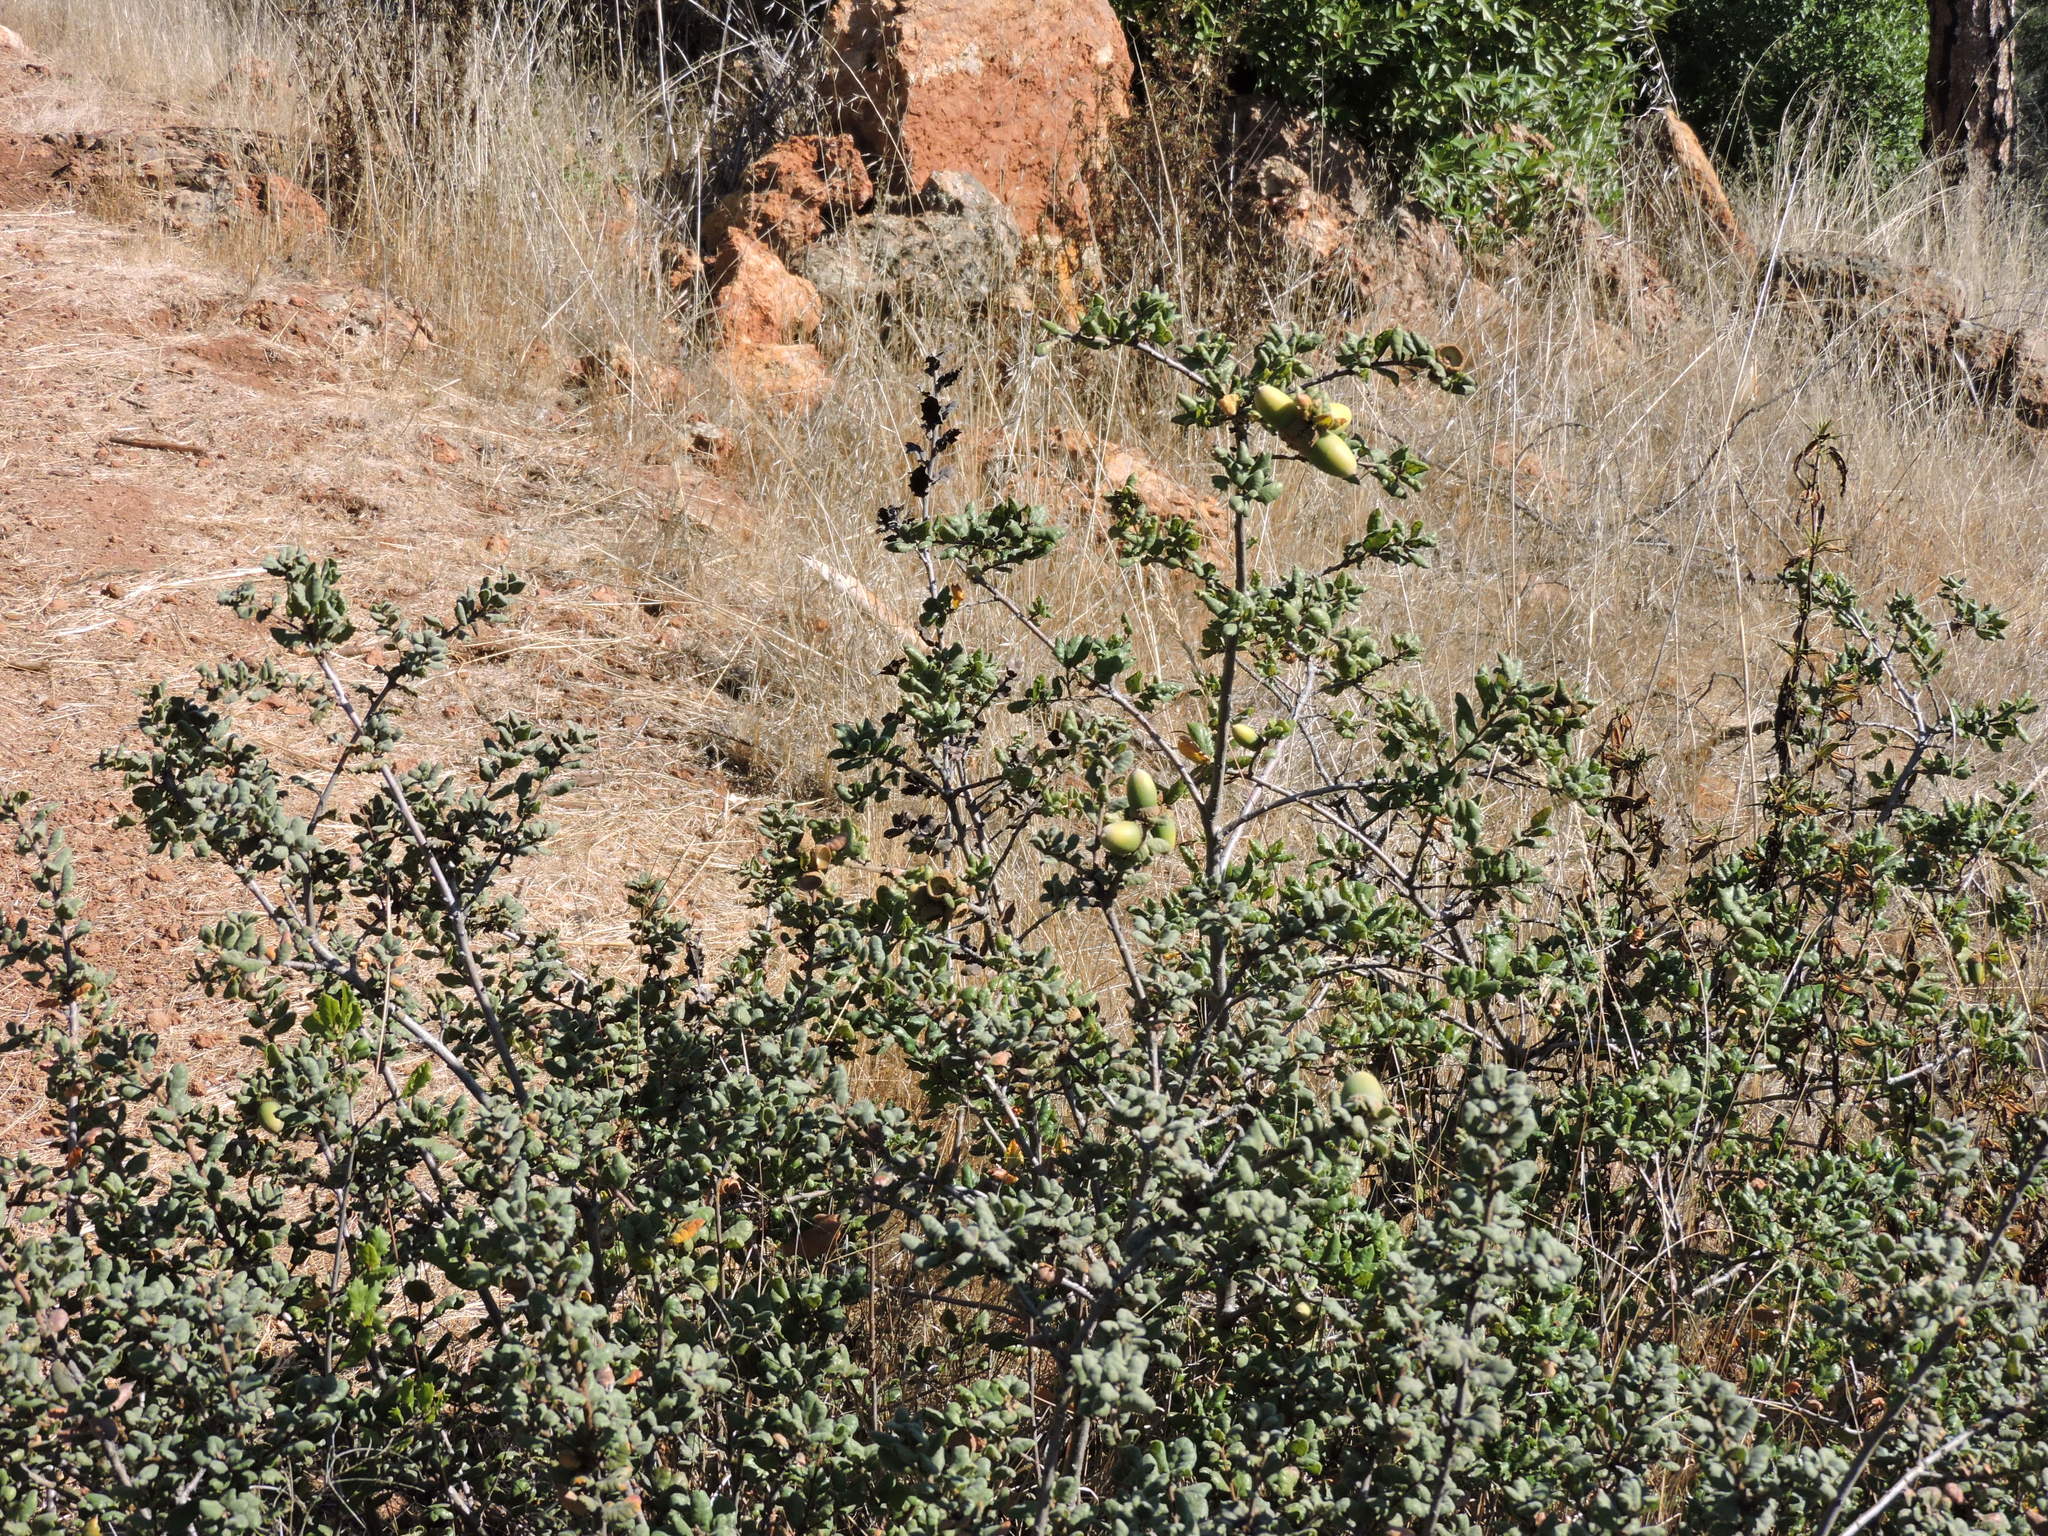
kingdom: Plantae
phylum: Tracheophyta
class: Magnoliopsida
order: Fagales
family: Fagaceae
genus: Quercus
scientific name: Quercus durata
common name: Leather oak
